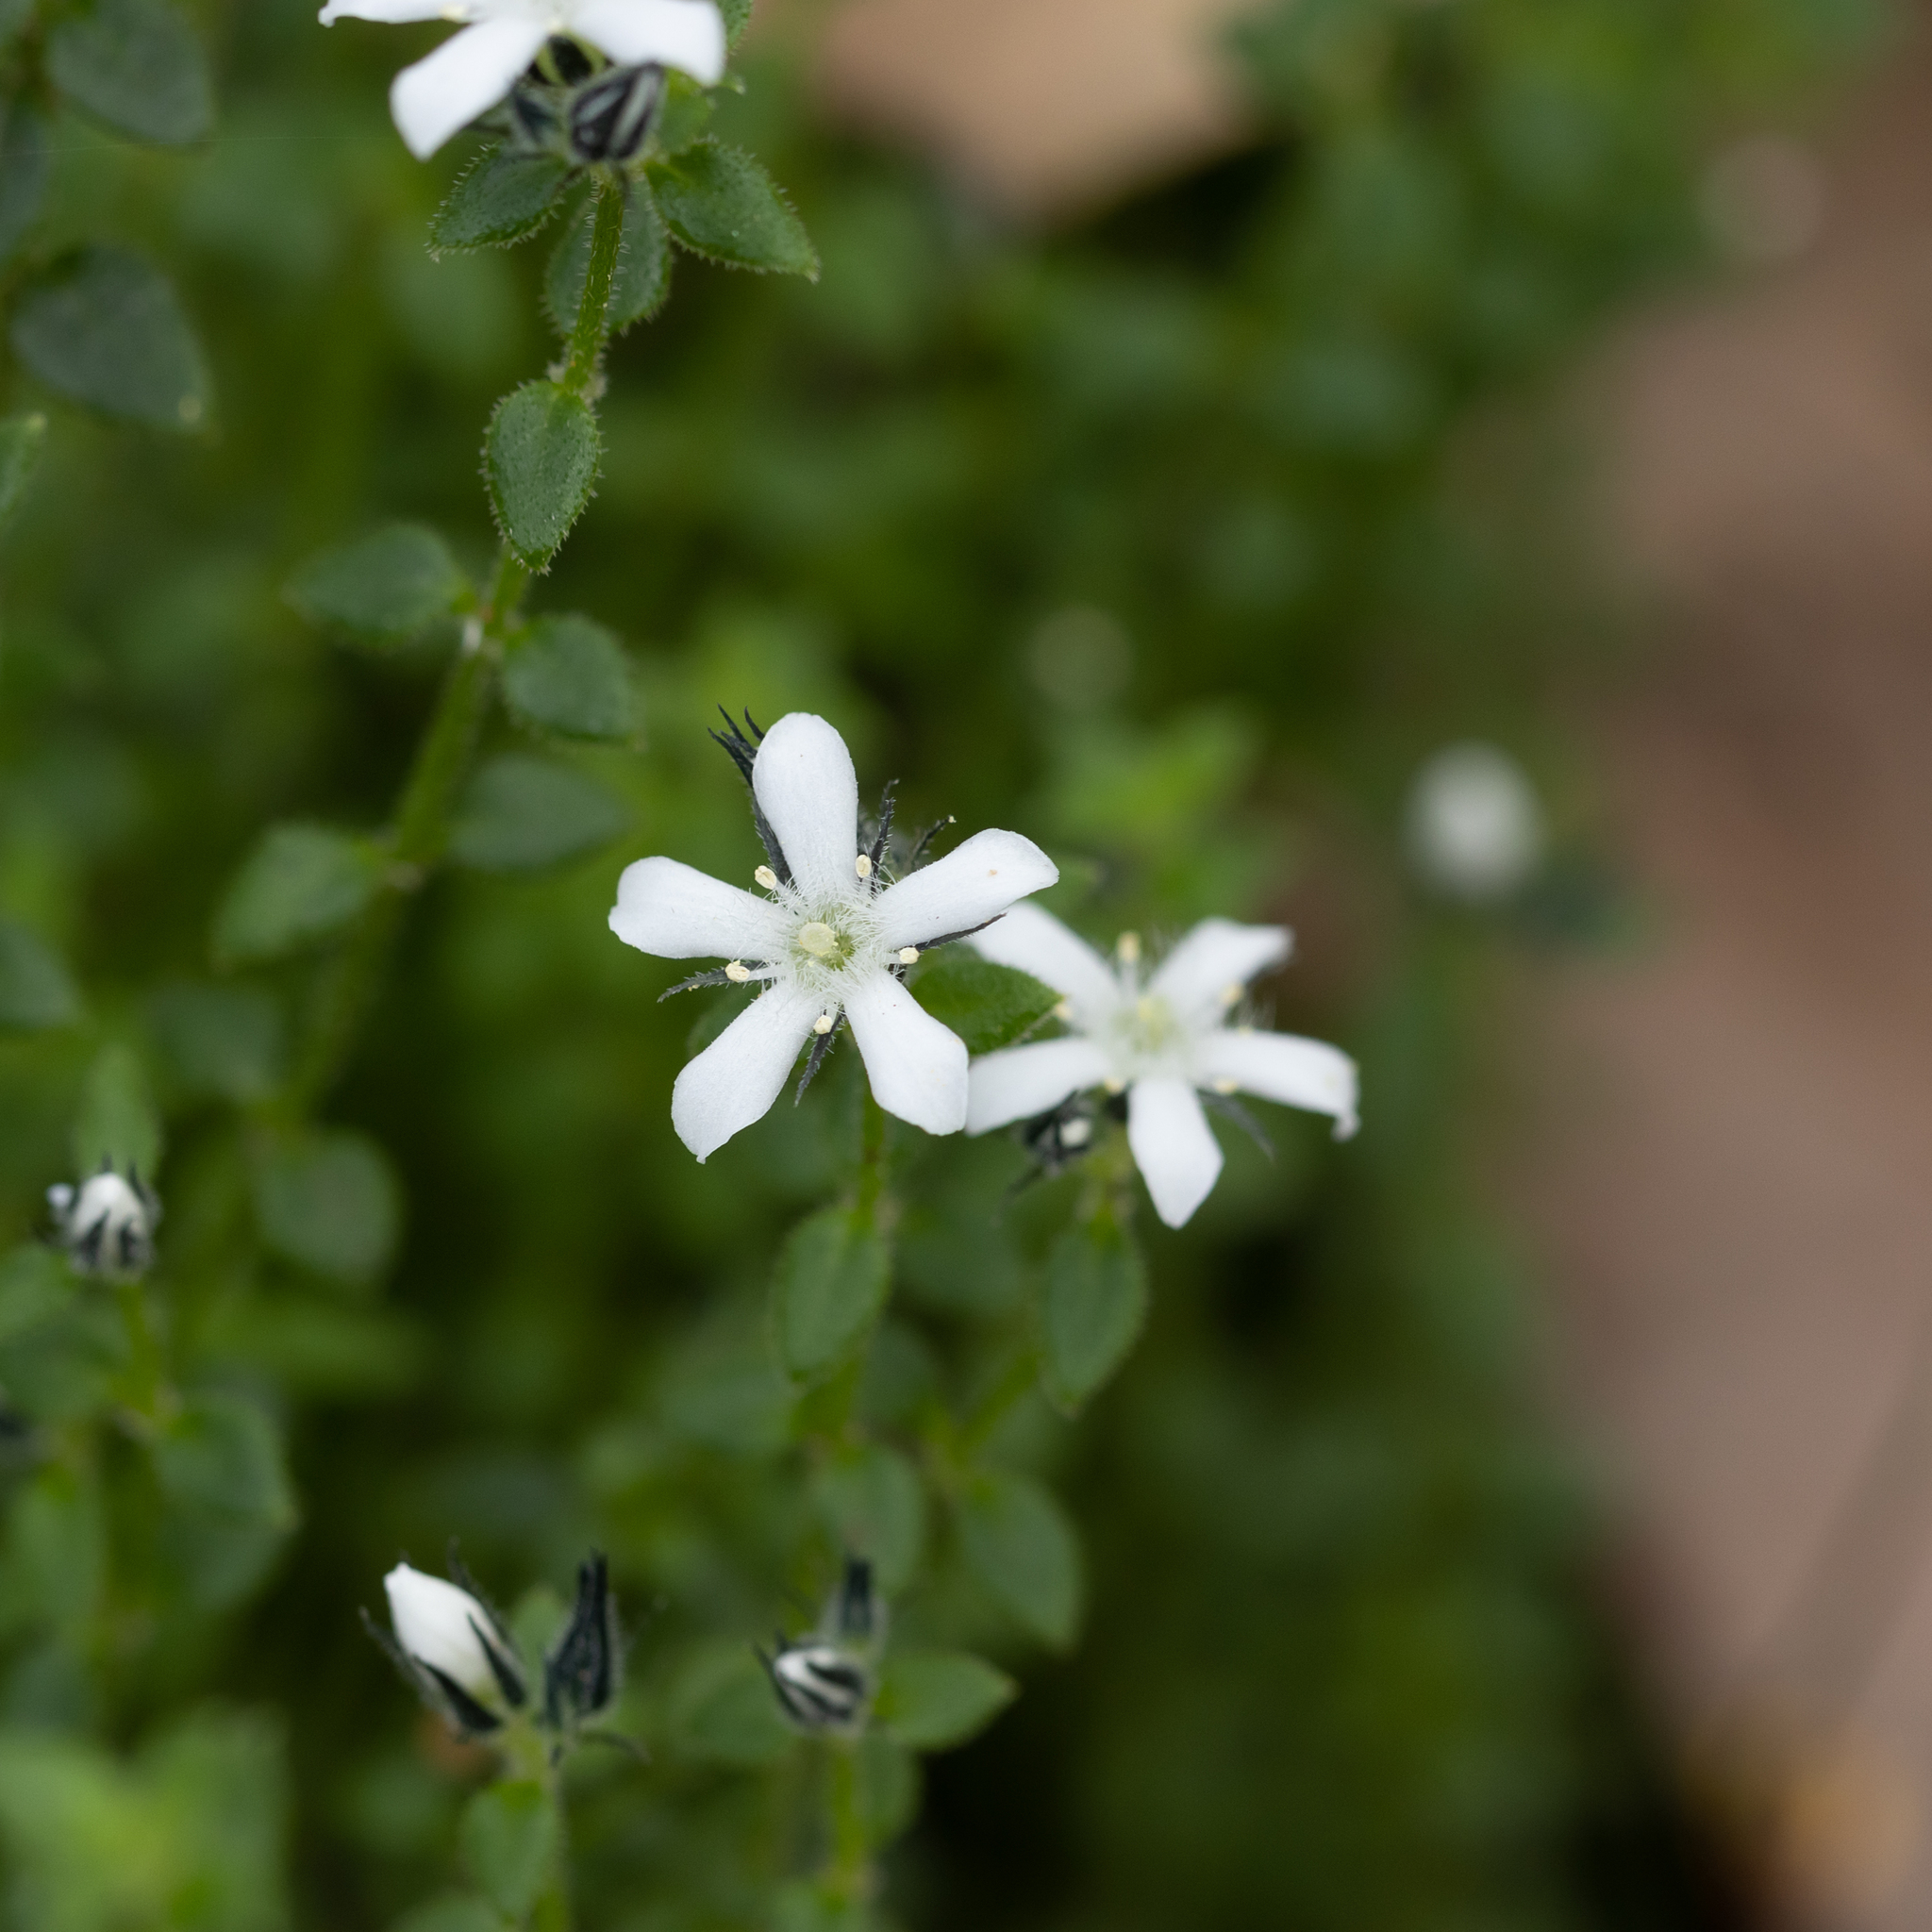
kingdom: Plantae
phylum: Tracheophyta
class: Magnoliopsida
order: Gentianales
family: Loganiaceae
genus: Orianthera
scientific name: Orianthera serpyllifolia
